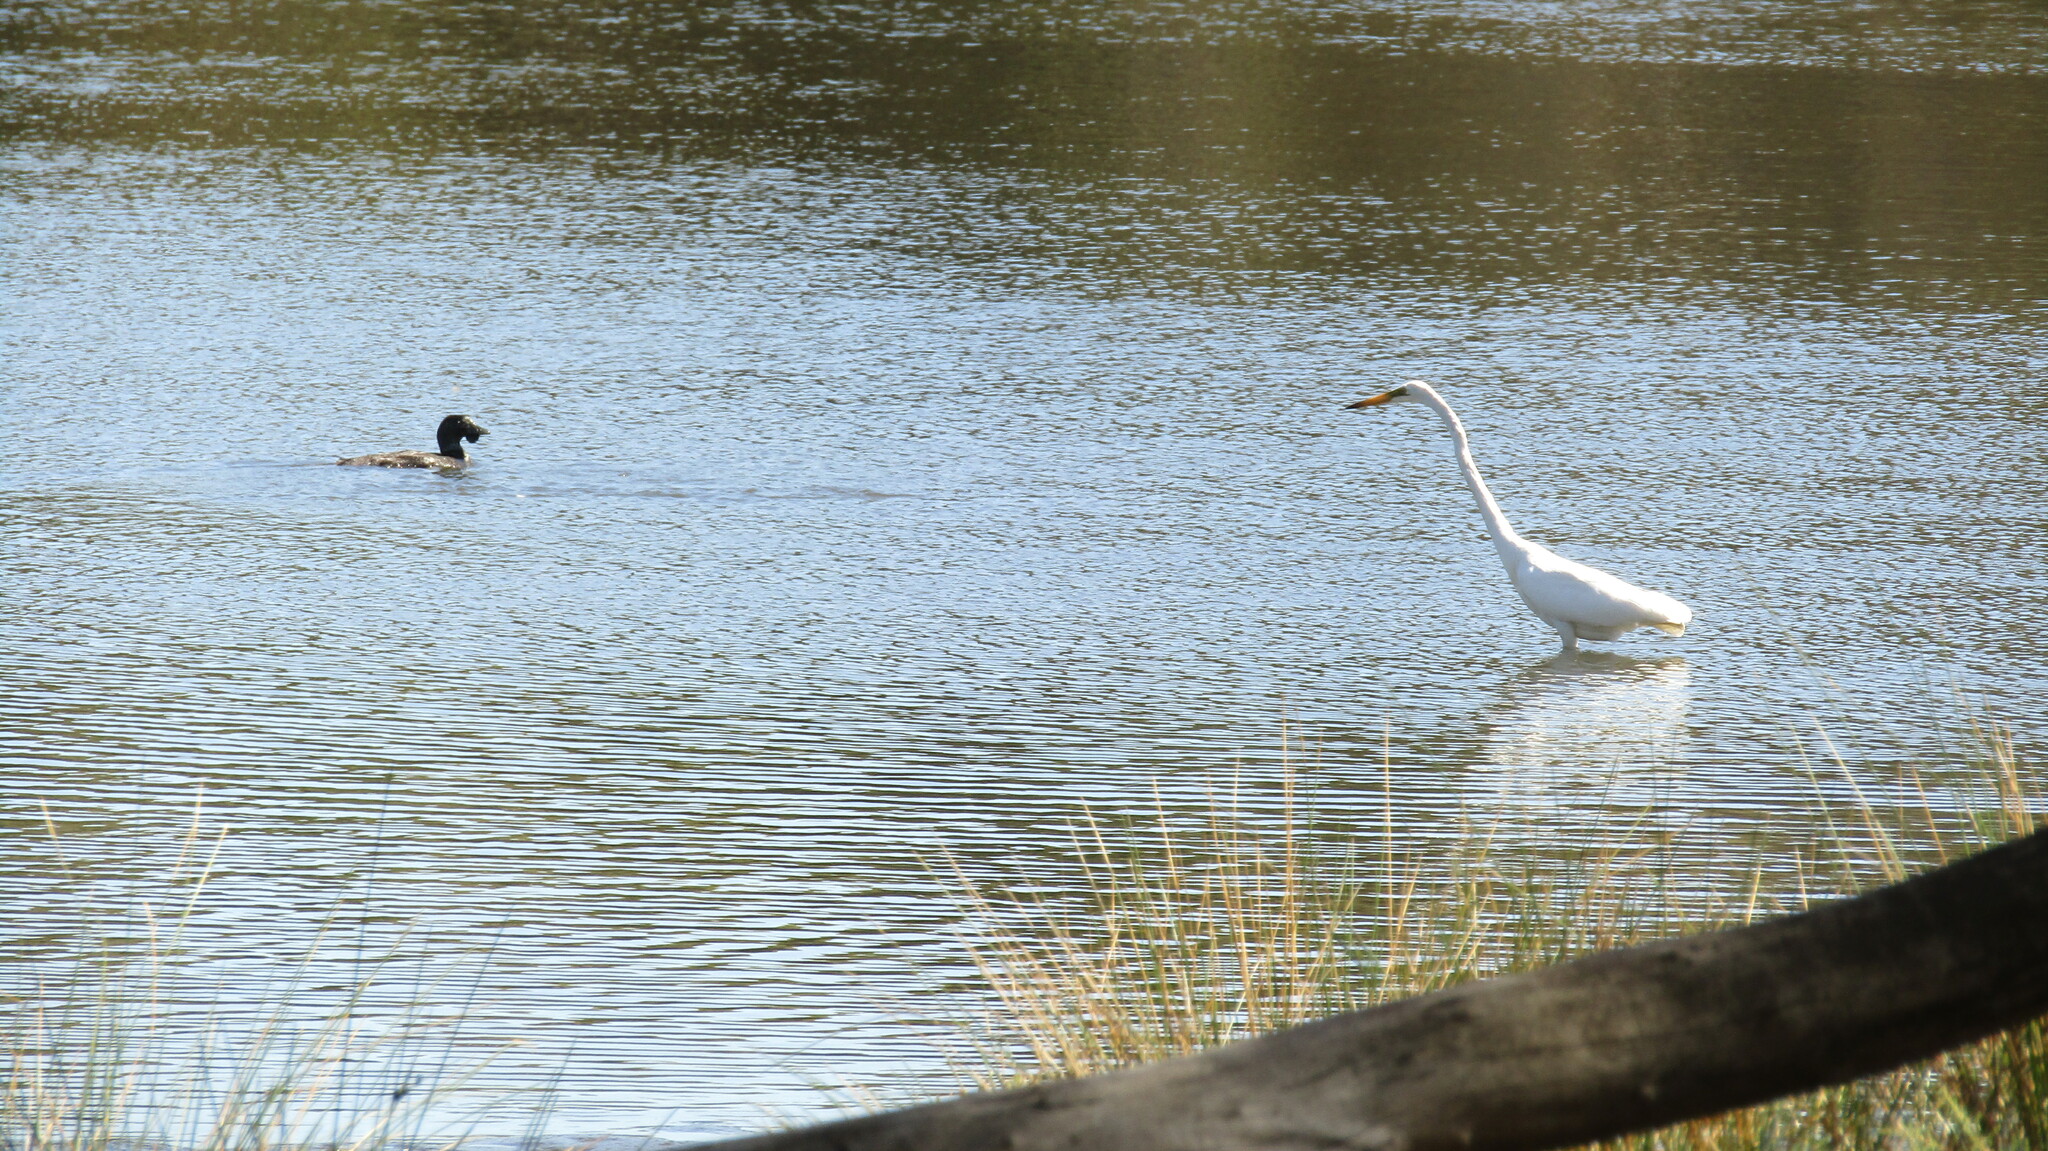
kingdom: Animalia
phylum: Chordata
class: Aves
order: Pelecaniformes
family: Ardeidae
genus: Ardea
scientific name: Ardea alba
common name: Great egret
